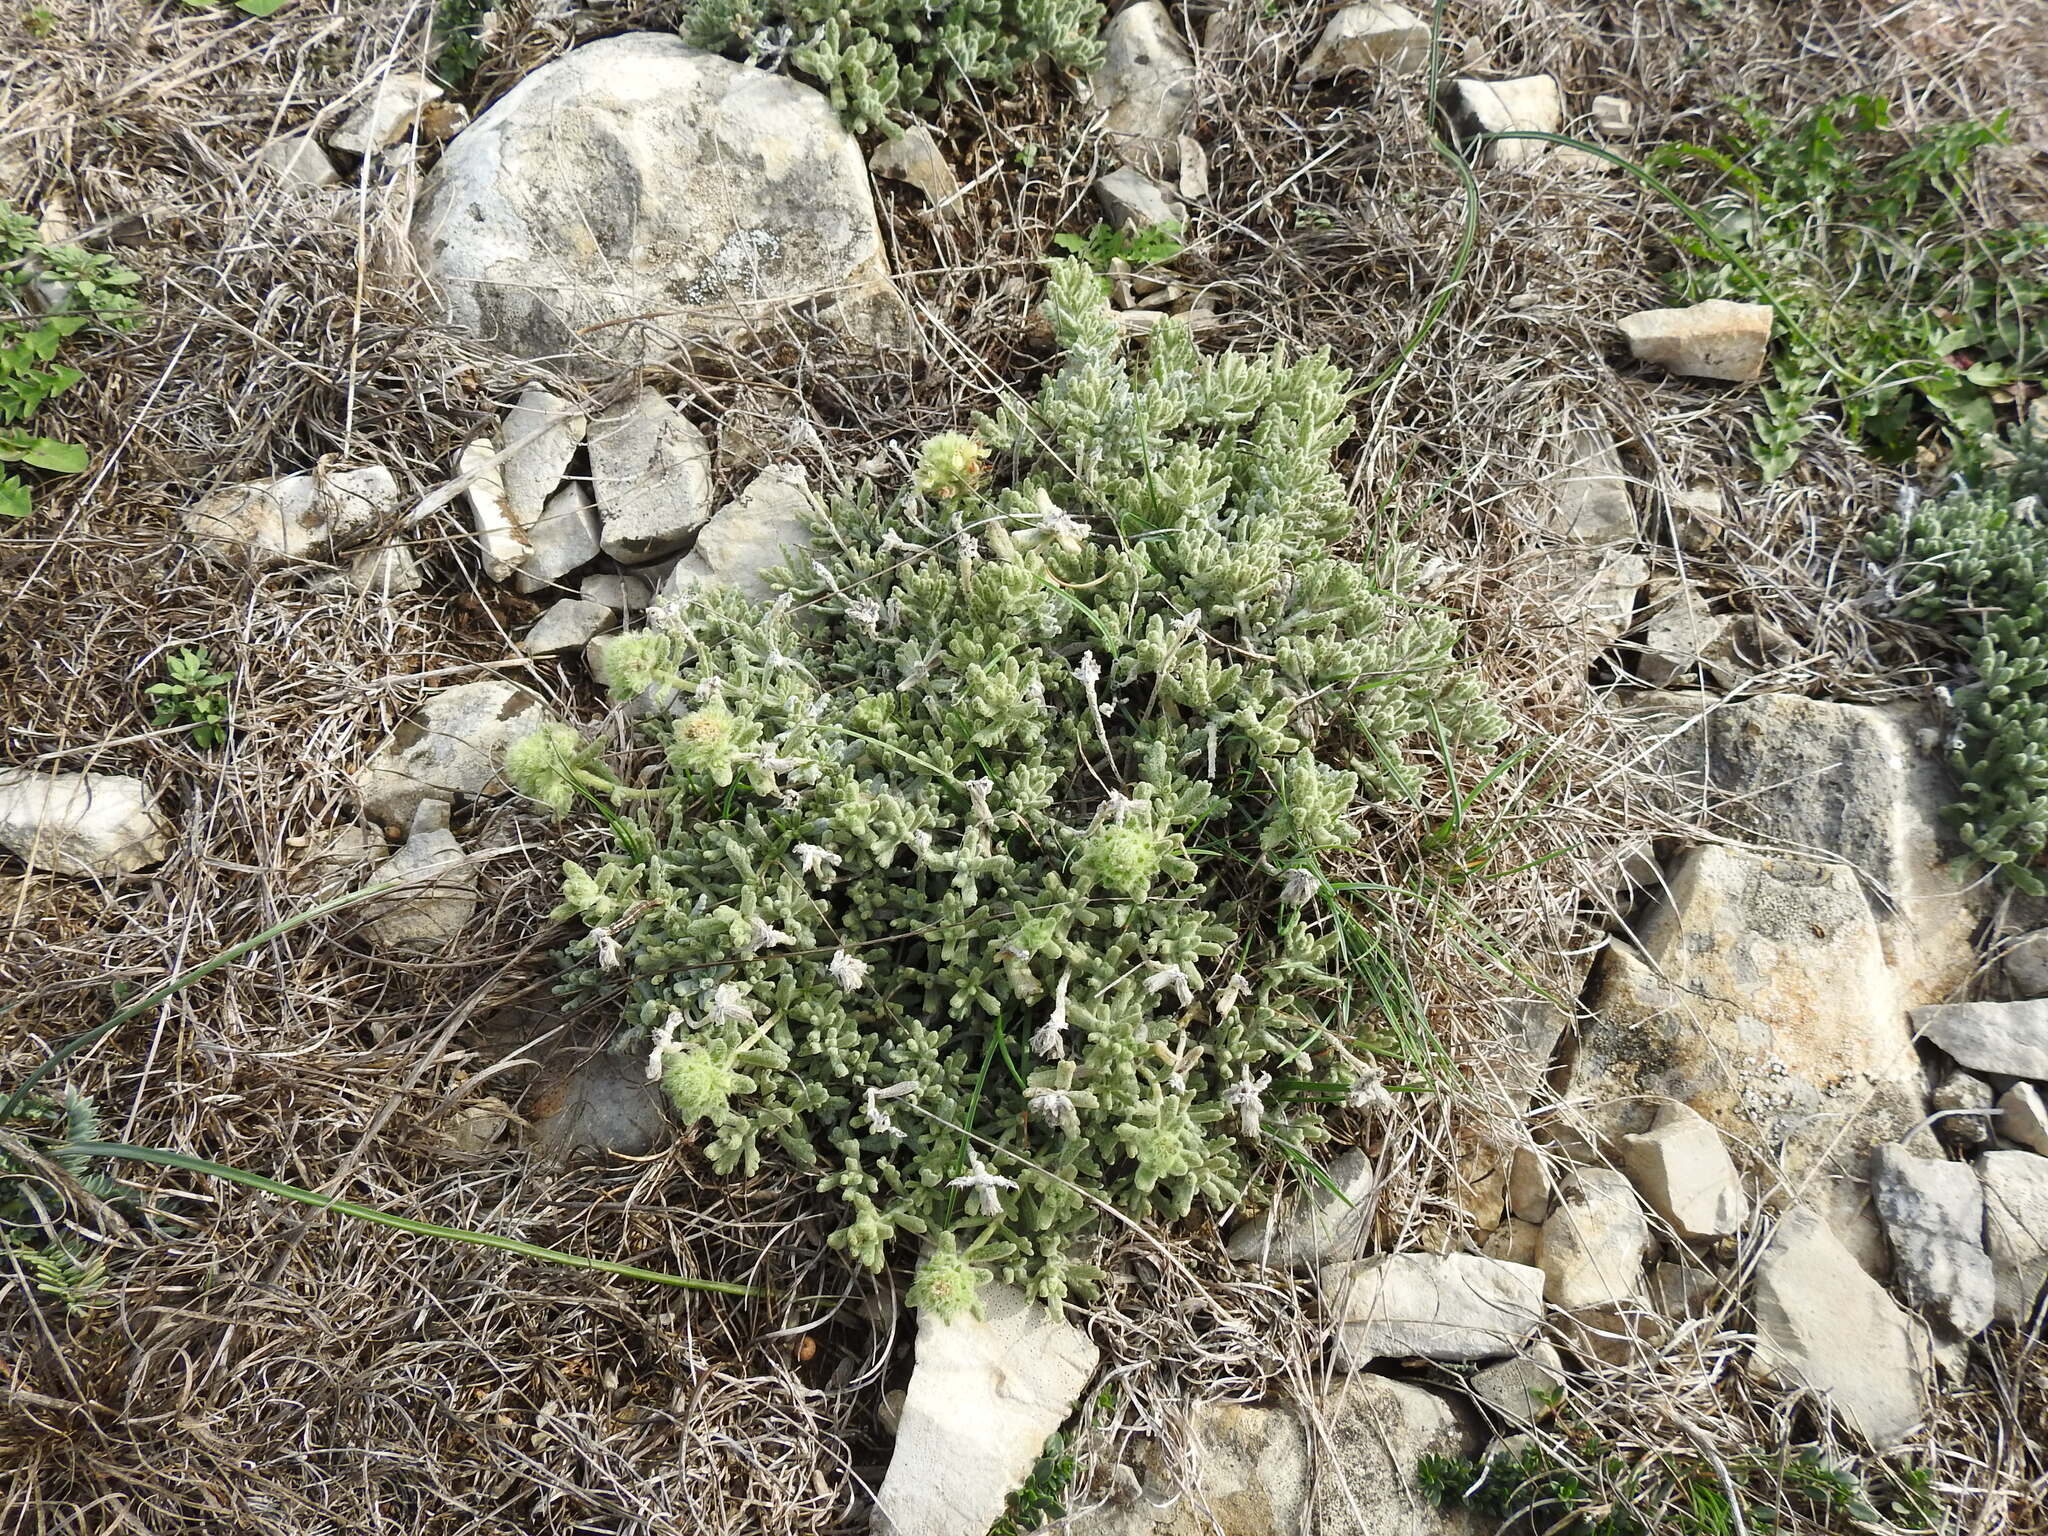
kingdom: Plantae
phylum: Tracheophyta
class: Magnoliopsida
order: Lamiales
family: Lamiaceae
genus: Teucrium
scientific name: Teucrium rouyanum
